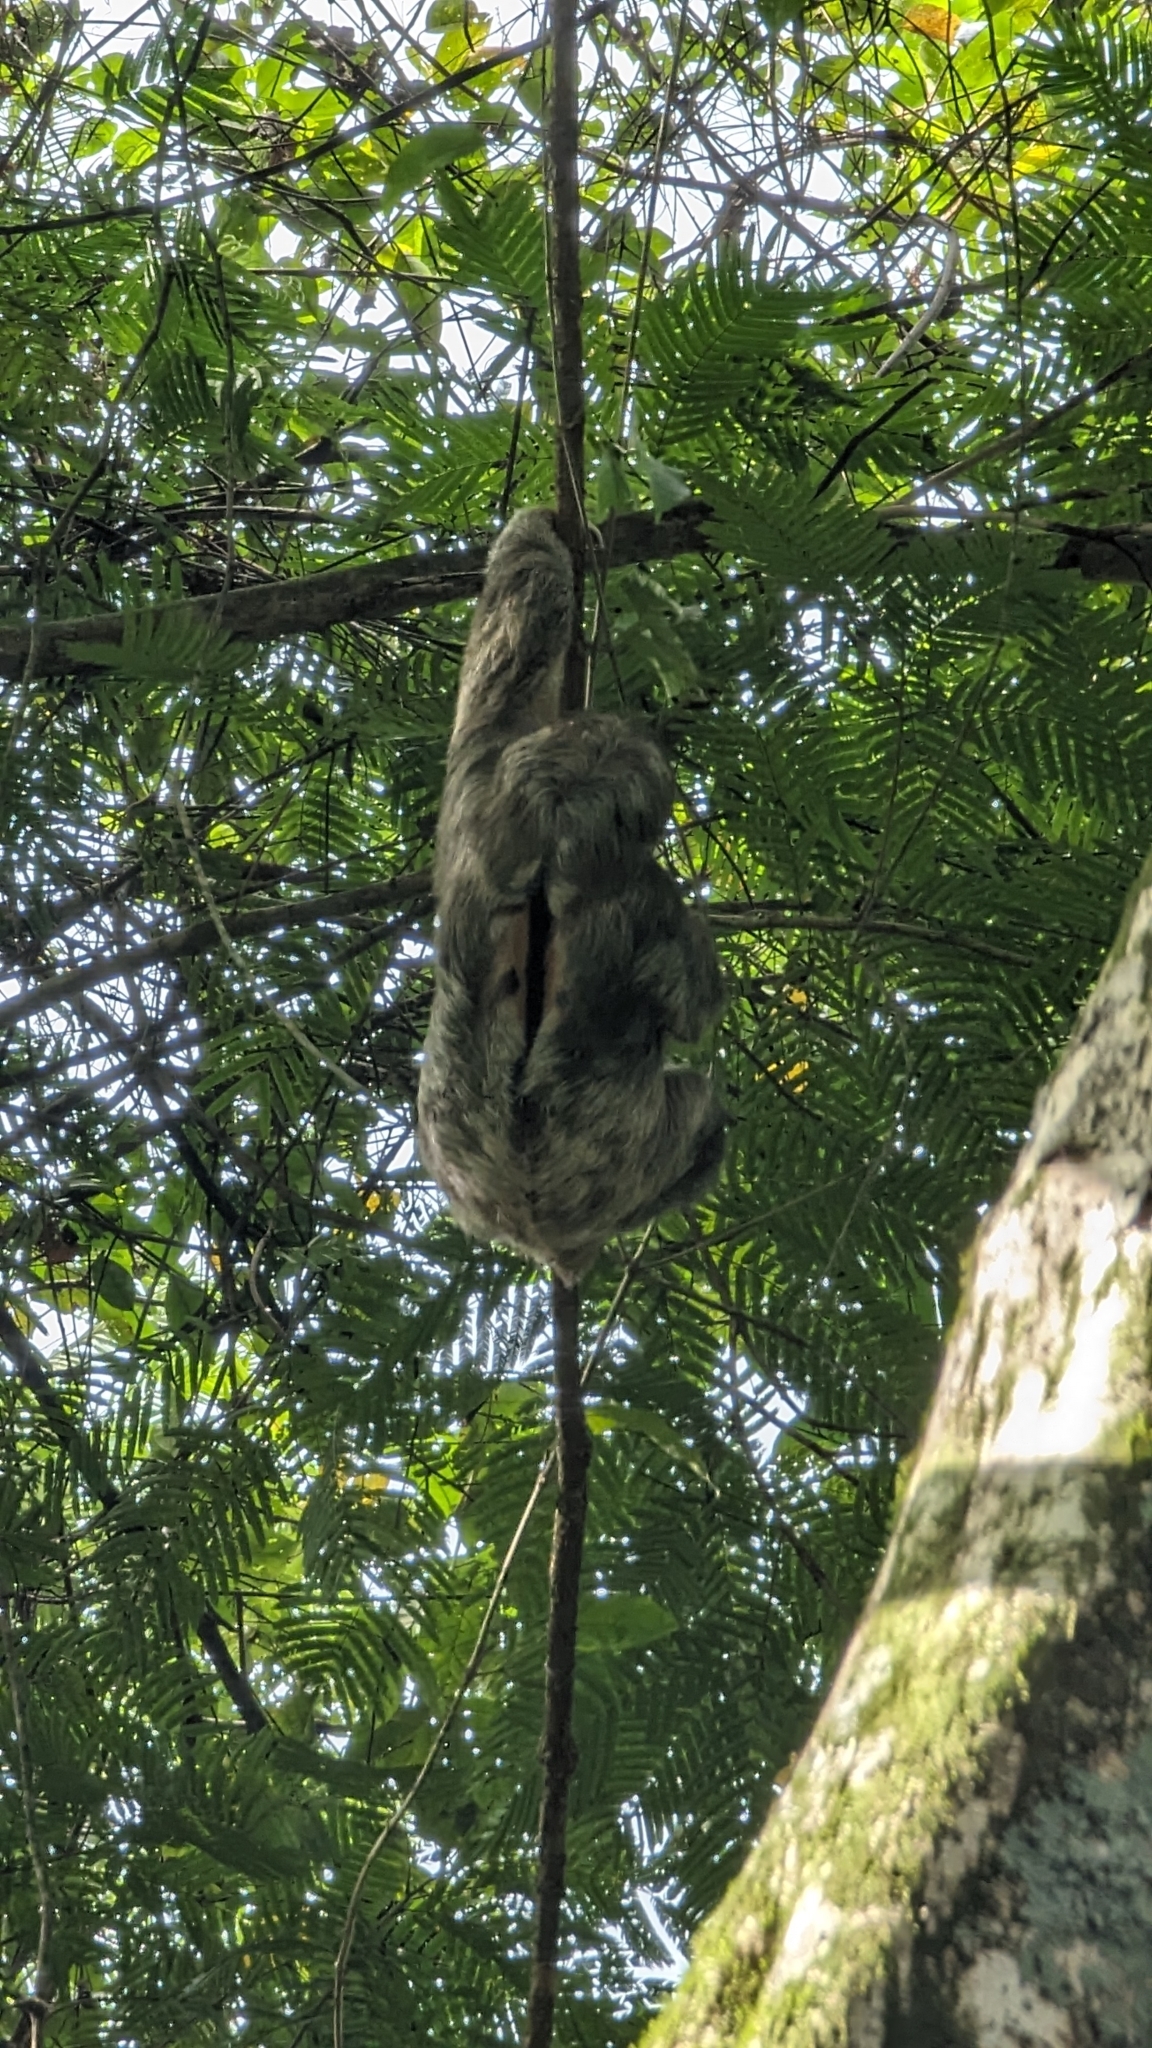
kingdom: Animalia
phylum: Chordata
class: Mammalia
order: Pilosa
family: Bradypodidae
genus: Bradypus
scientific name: Bradypus variegatus
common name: Brown-throated three-toed sloth
